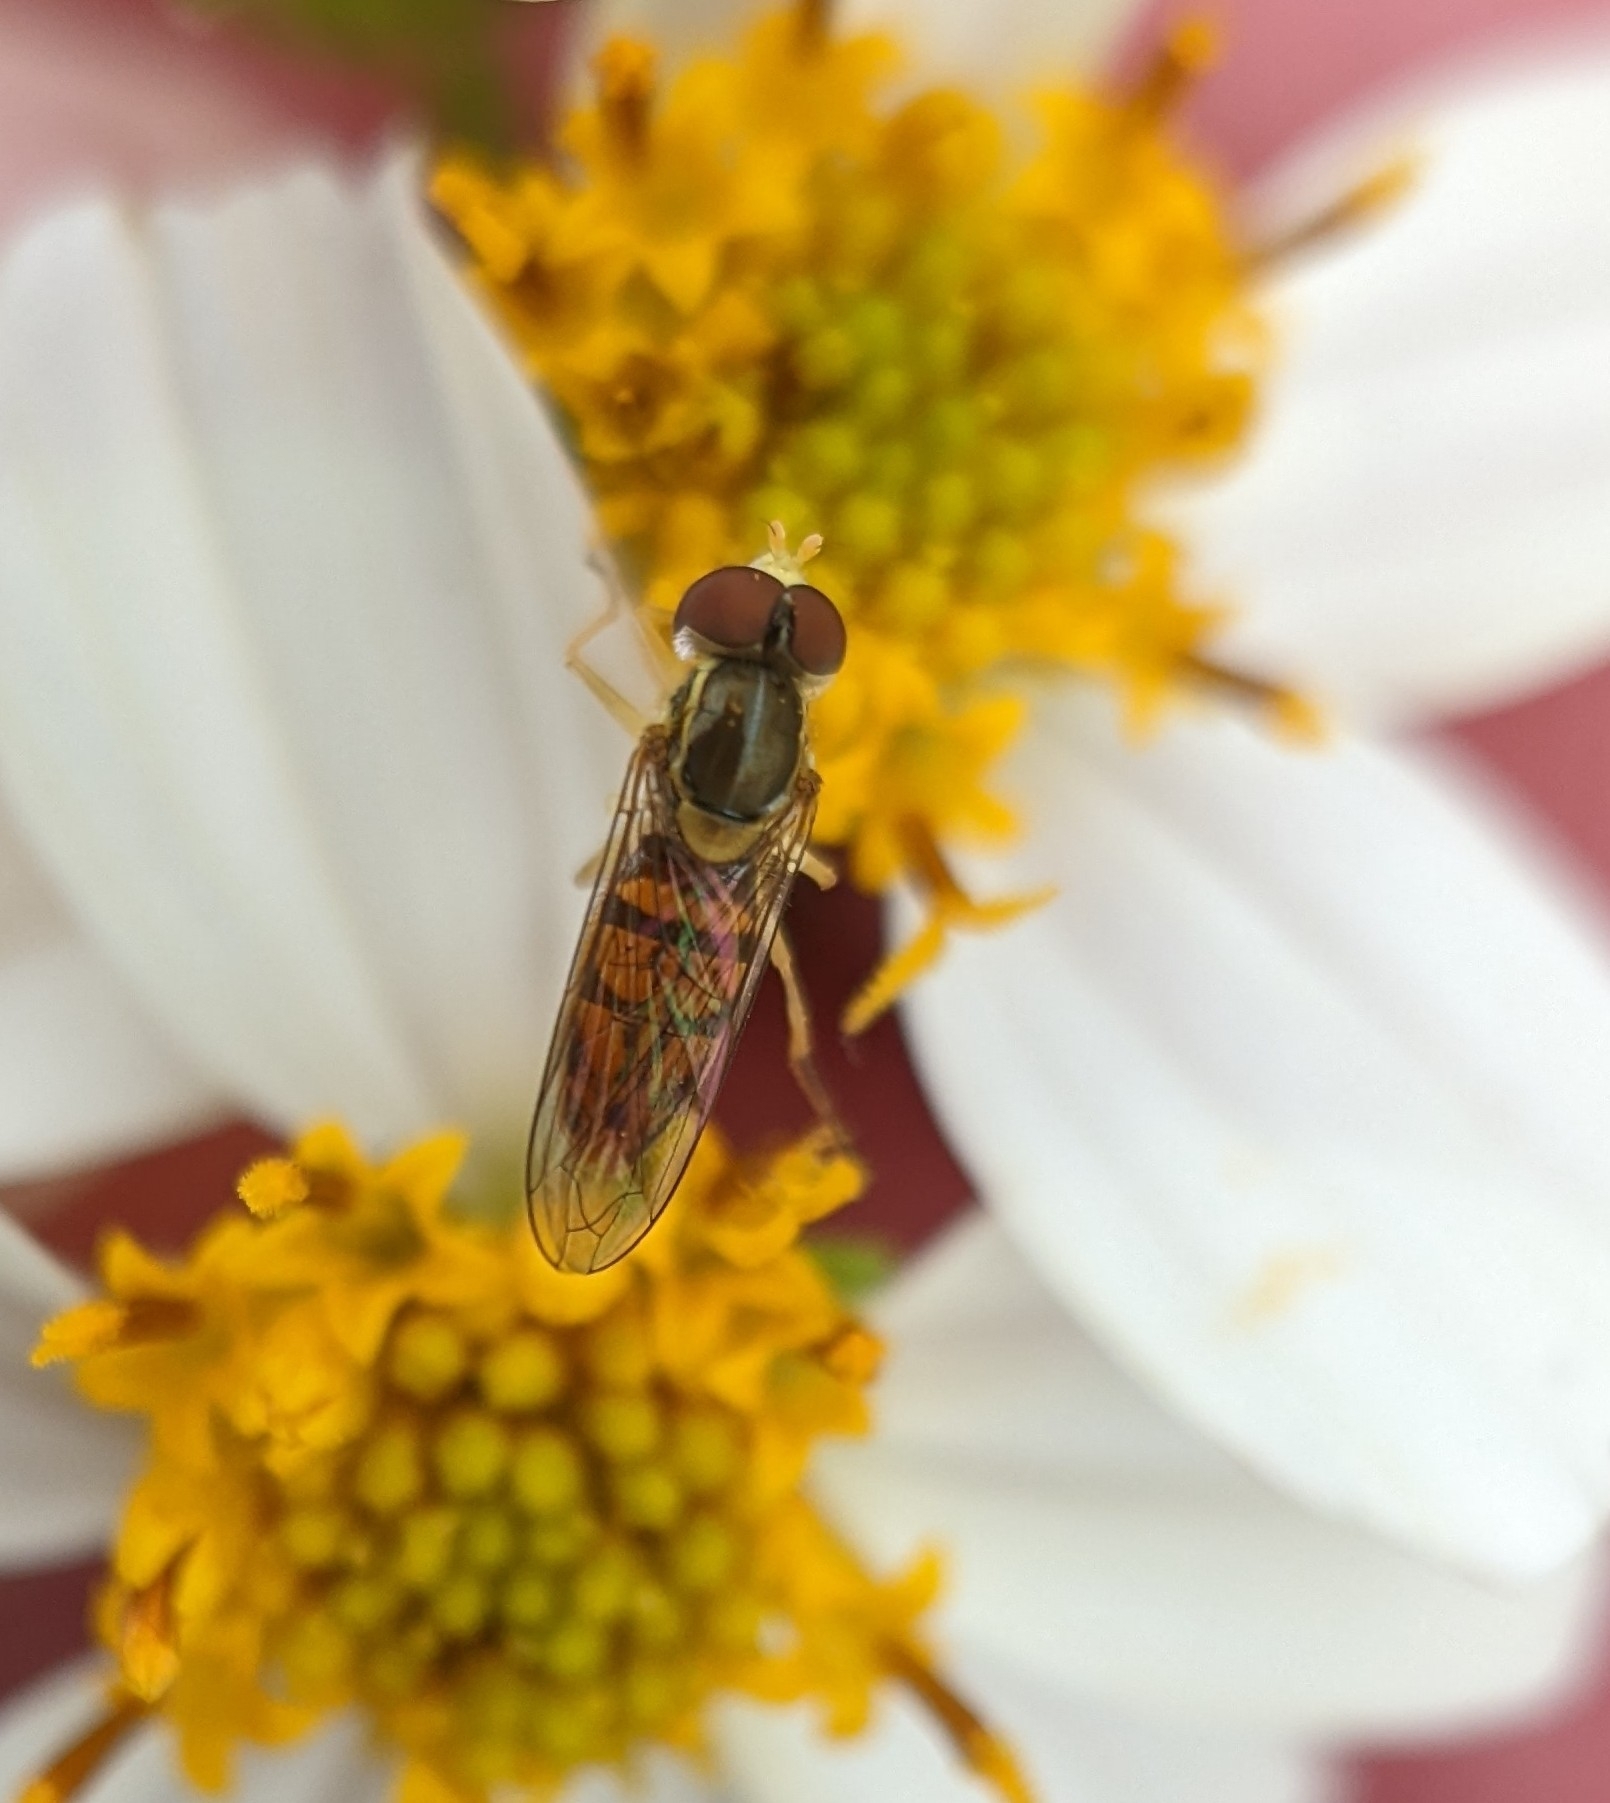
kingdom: Animalia
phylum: Arthropoda
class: Insecta
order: Diptera
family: Syrphidae
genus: Toxomerus
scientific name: Toxomerus marginatus
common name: Syrphid fly
